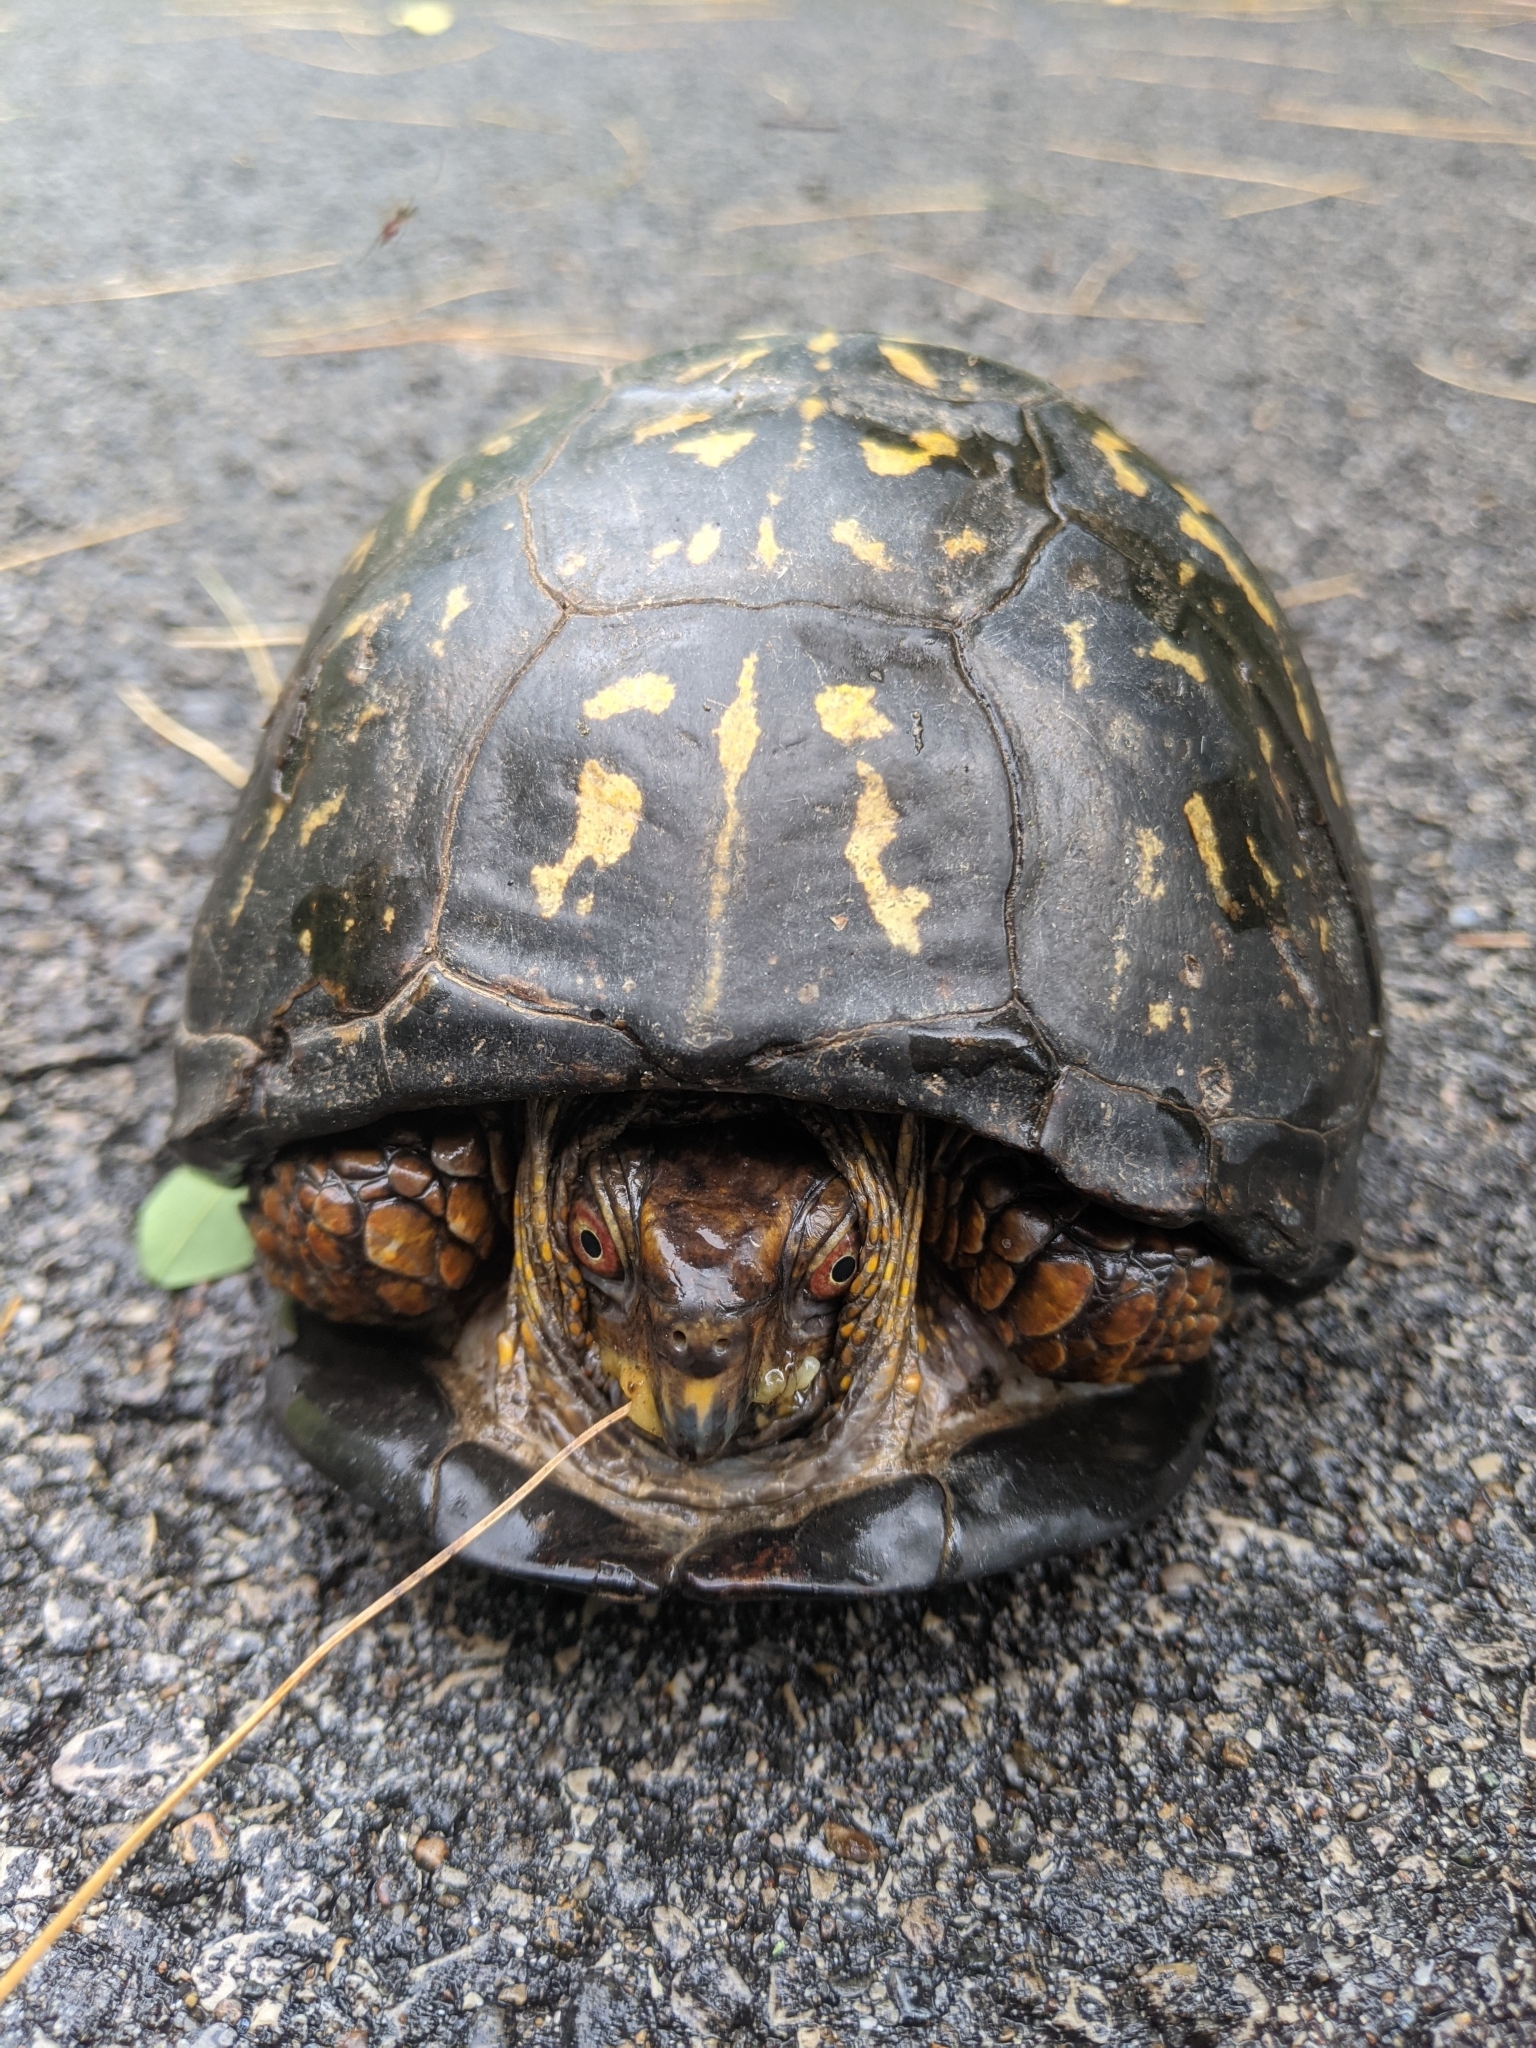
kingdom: Animalia
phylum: Chordata
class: Testudines
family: Emydidae
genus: Terrapene
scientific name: Terrapene carolina
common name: Common box turtle
